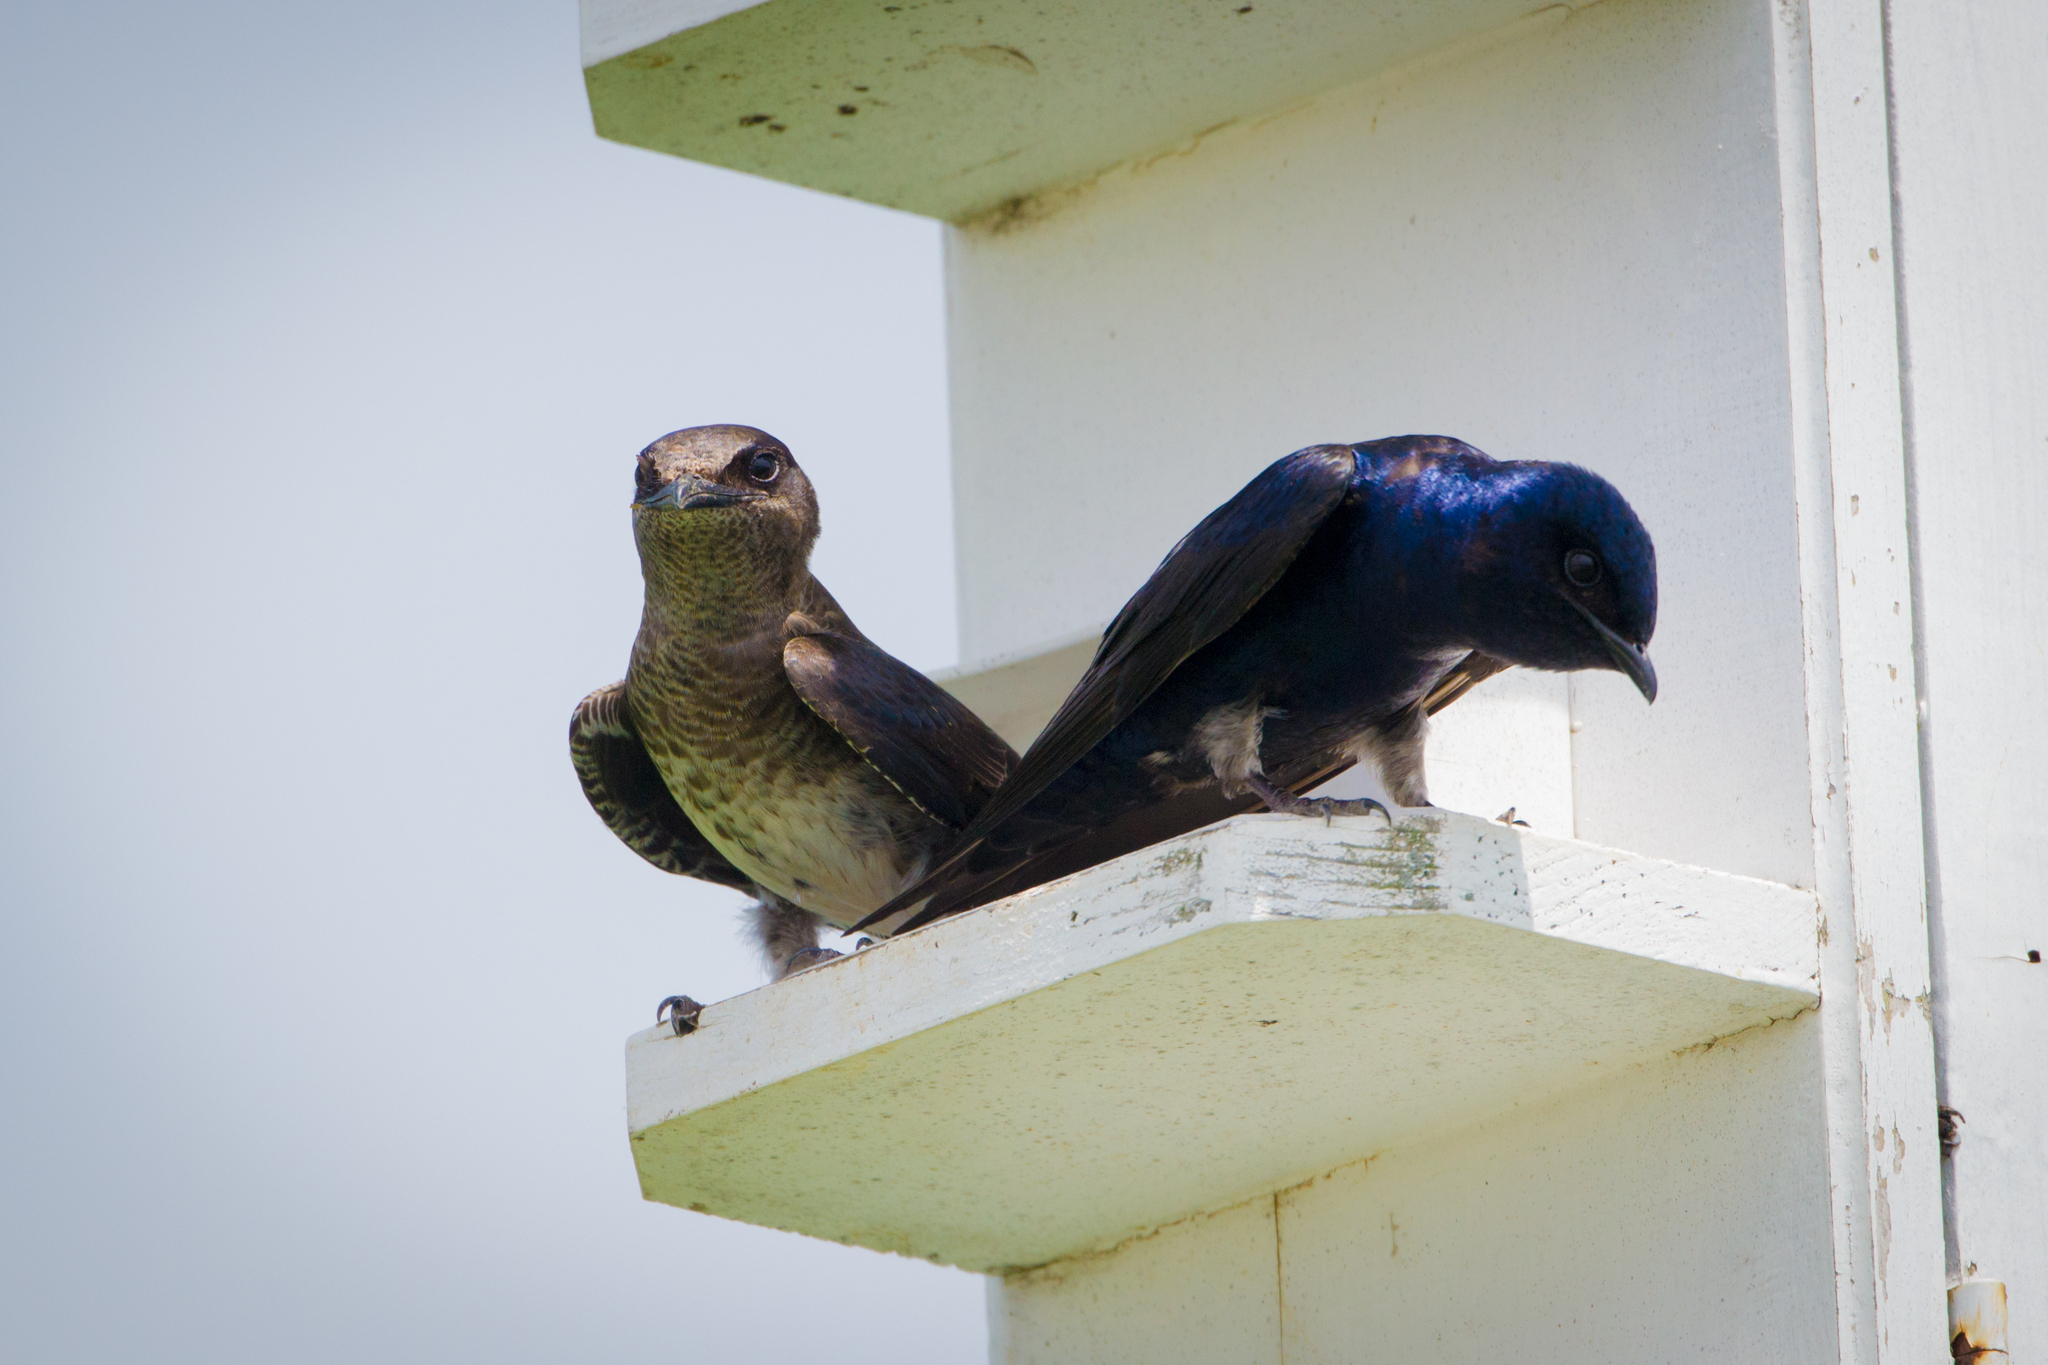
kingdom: Animalia
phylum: Chordata
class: Aves
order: Passeriformes
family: Hirundinidae
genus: Progne
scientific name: Progne subis
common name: Purple martin
